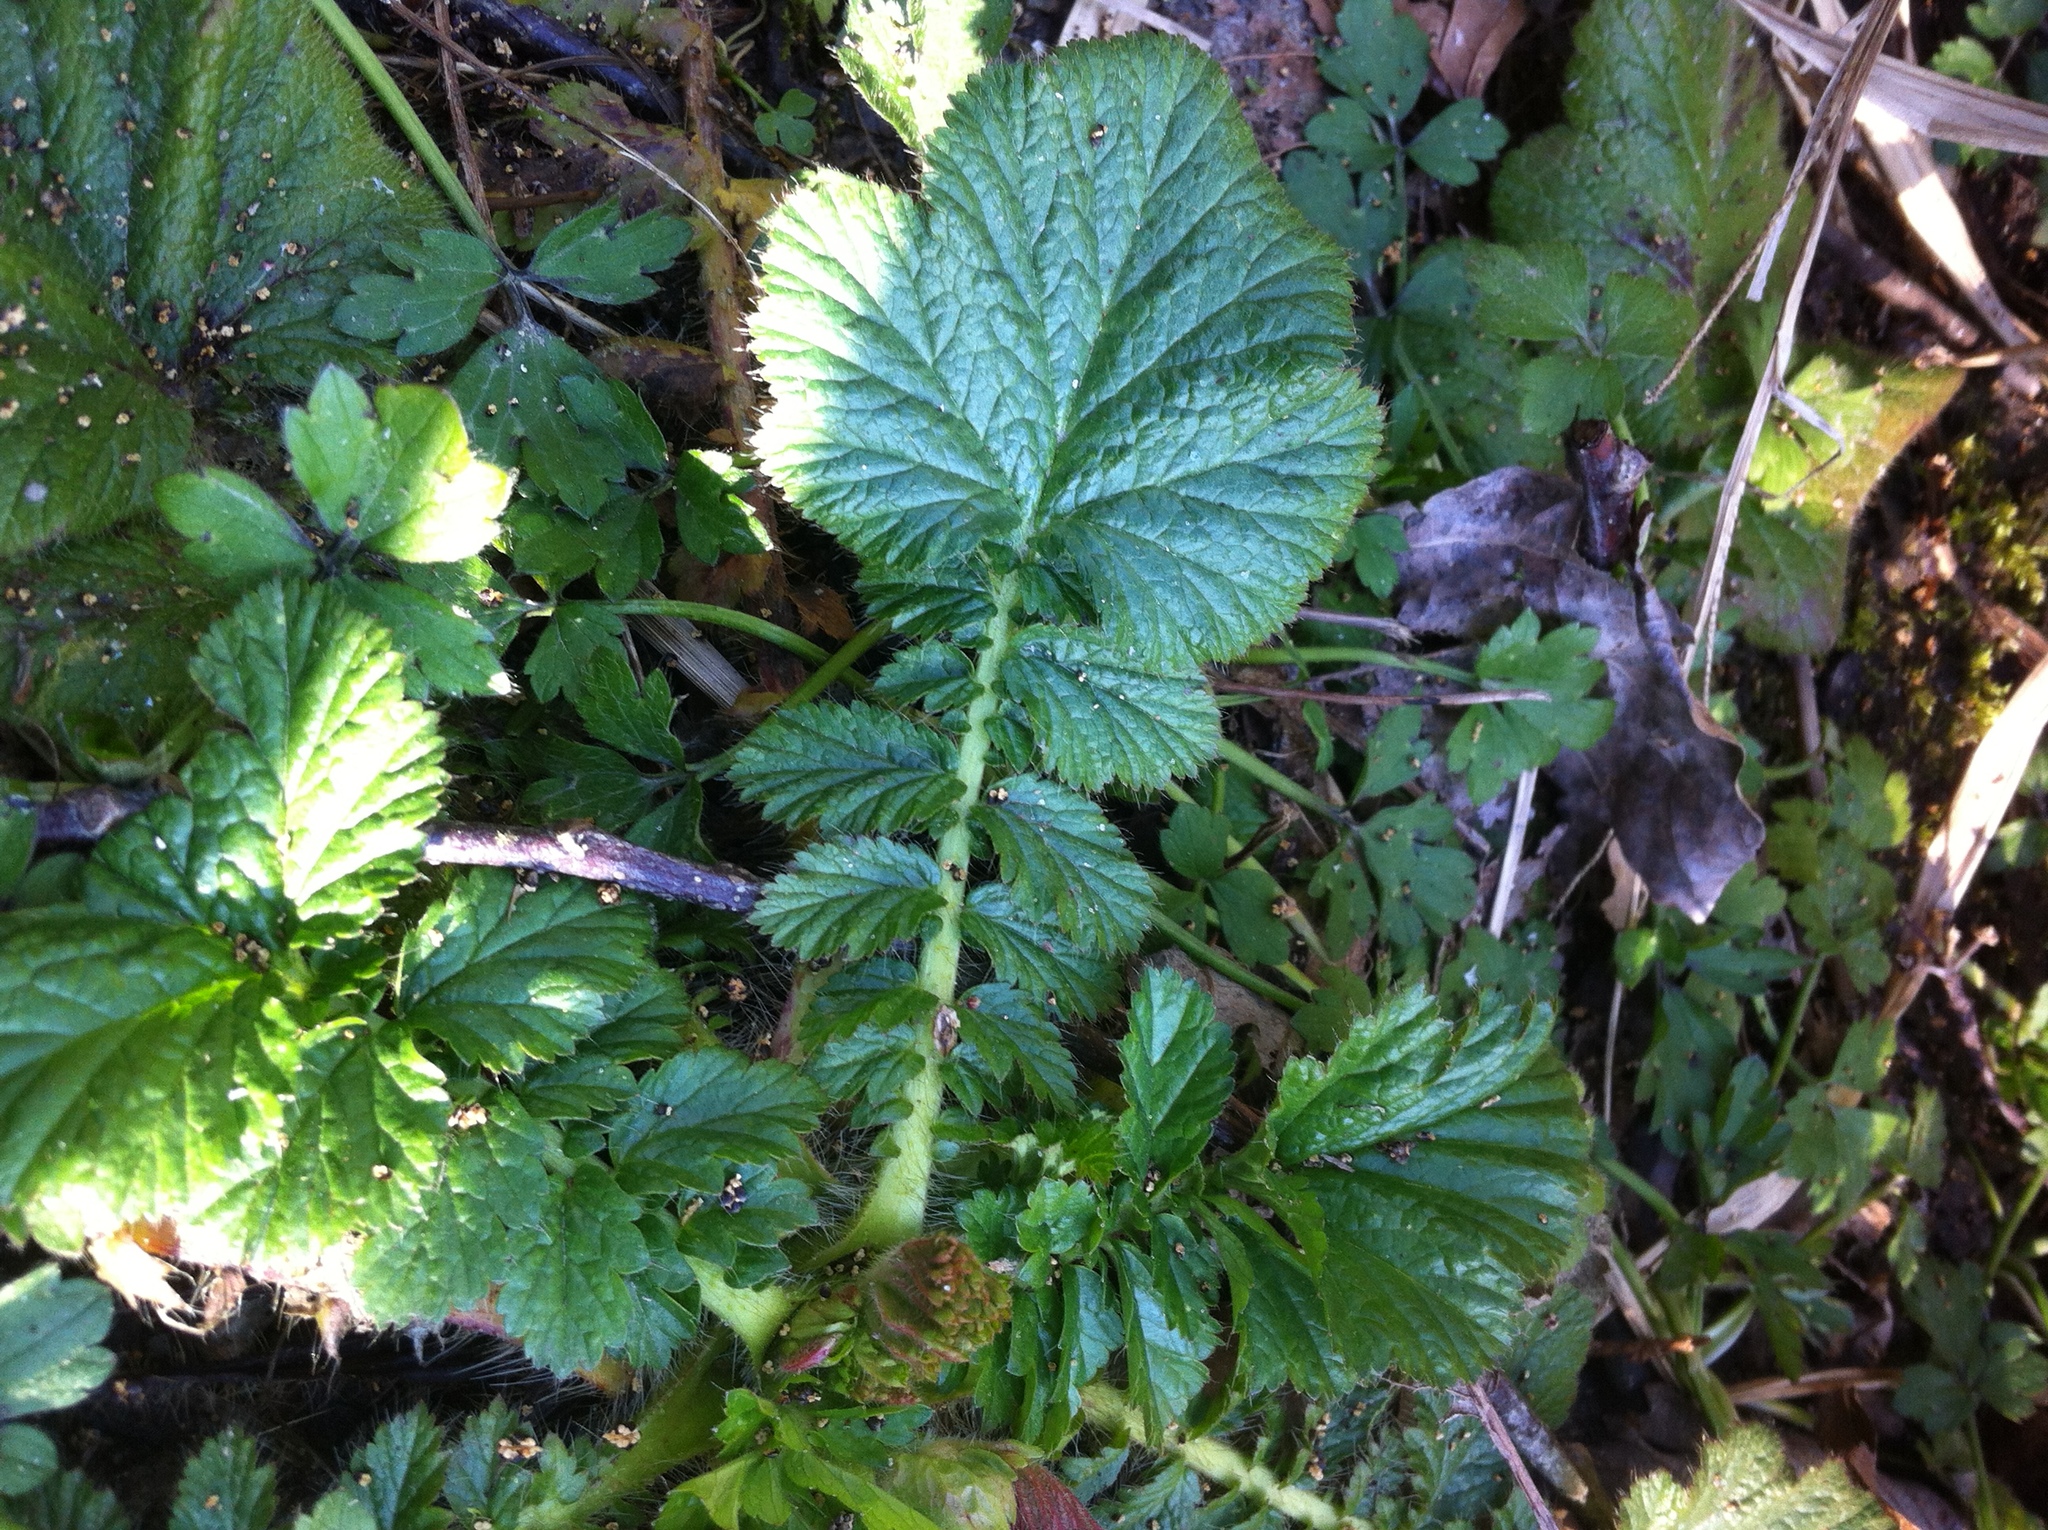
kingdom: Plantae
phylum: Tracheophyta
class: Magnoliopsida
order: Rosales
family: Rosaceae
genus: Geum
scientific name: Geum macrophyllum
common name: Large-leaved avens
